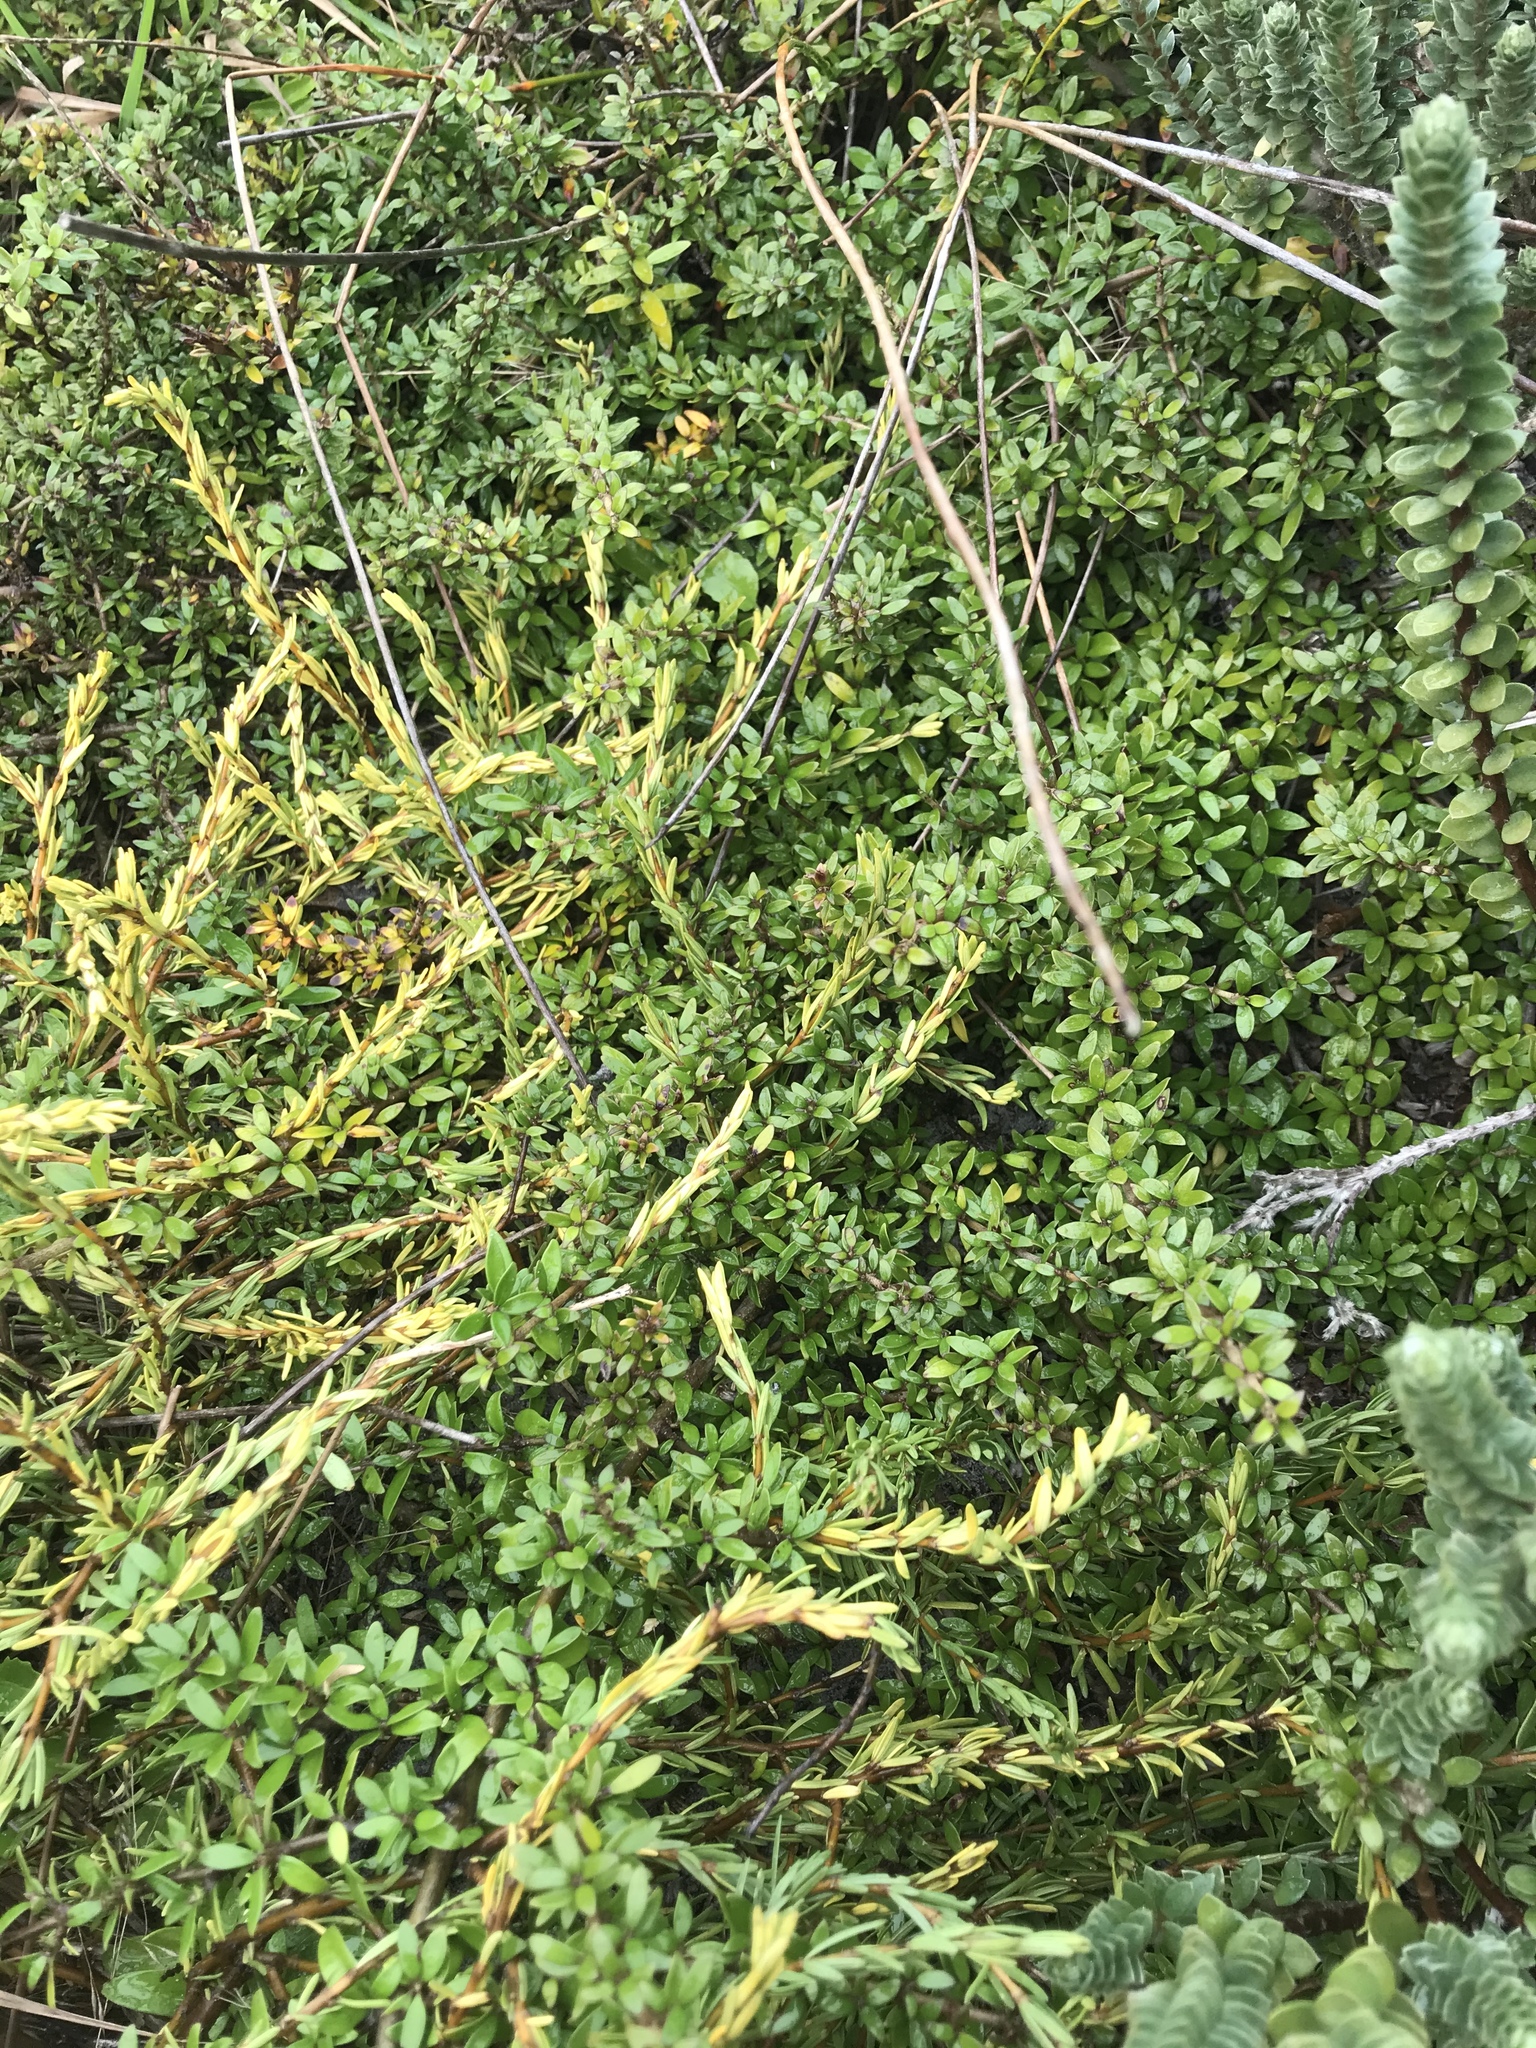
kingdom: Plantae
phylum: Tracheophyta
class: Magnoliopsida
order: Gentianales
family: Rubiaceae
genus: Coprosma
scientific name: Coprosma propinqua
